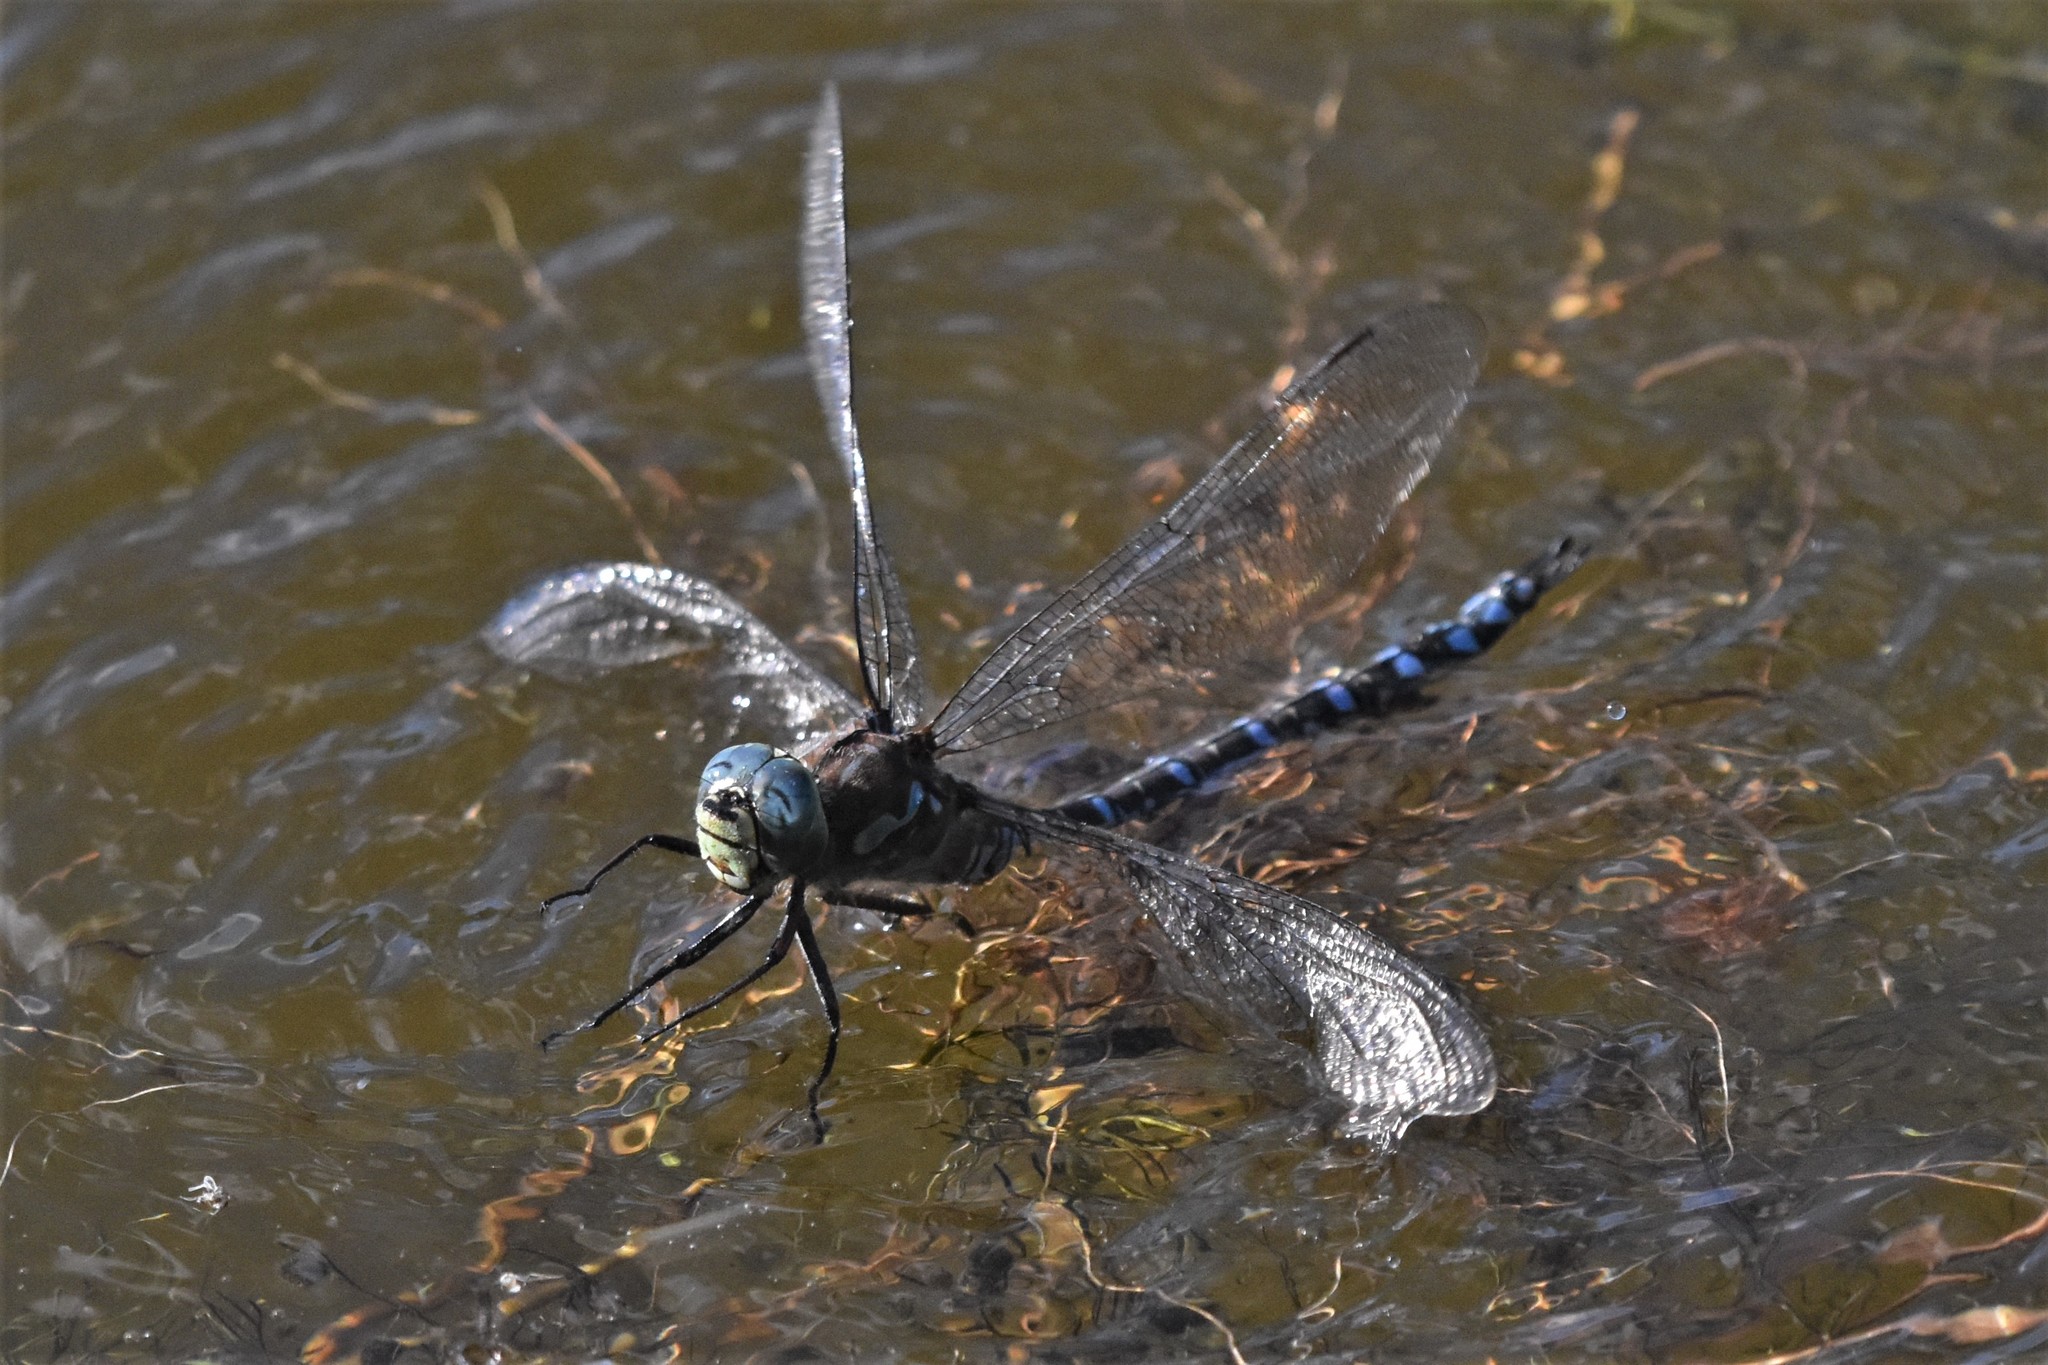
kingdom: Animalia
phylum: Arthropoda
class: Insecta
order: Odonata
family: Aeshnidae
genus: Aeshna
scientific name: Aeshna eremita
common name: Lake darner
